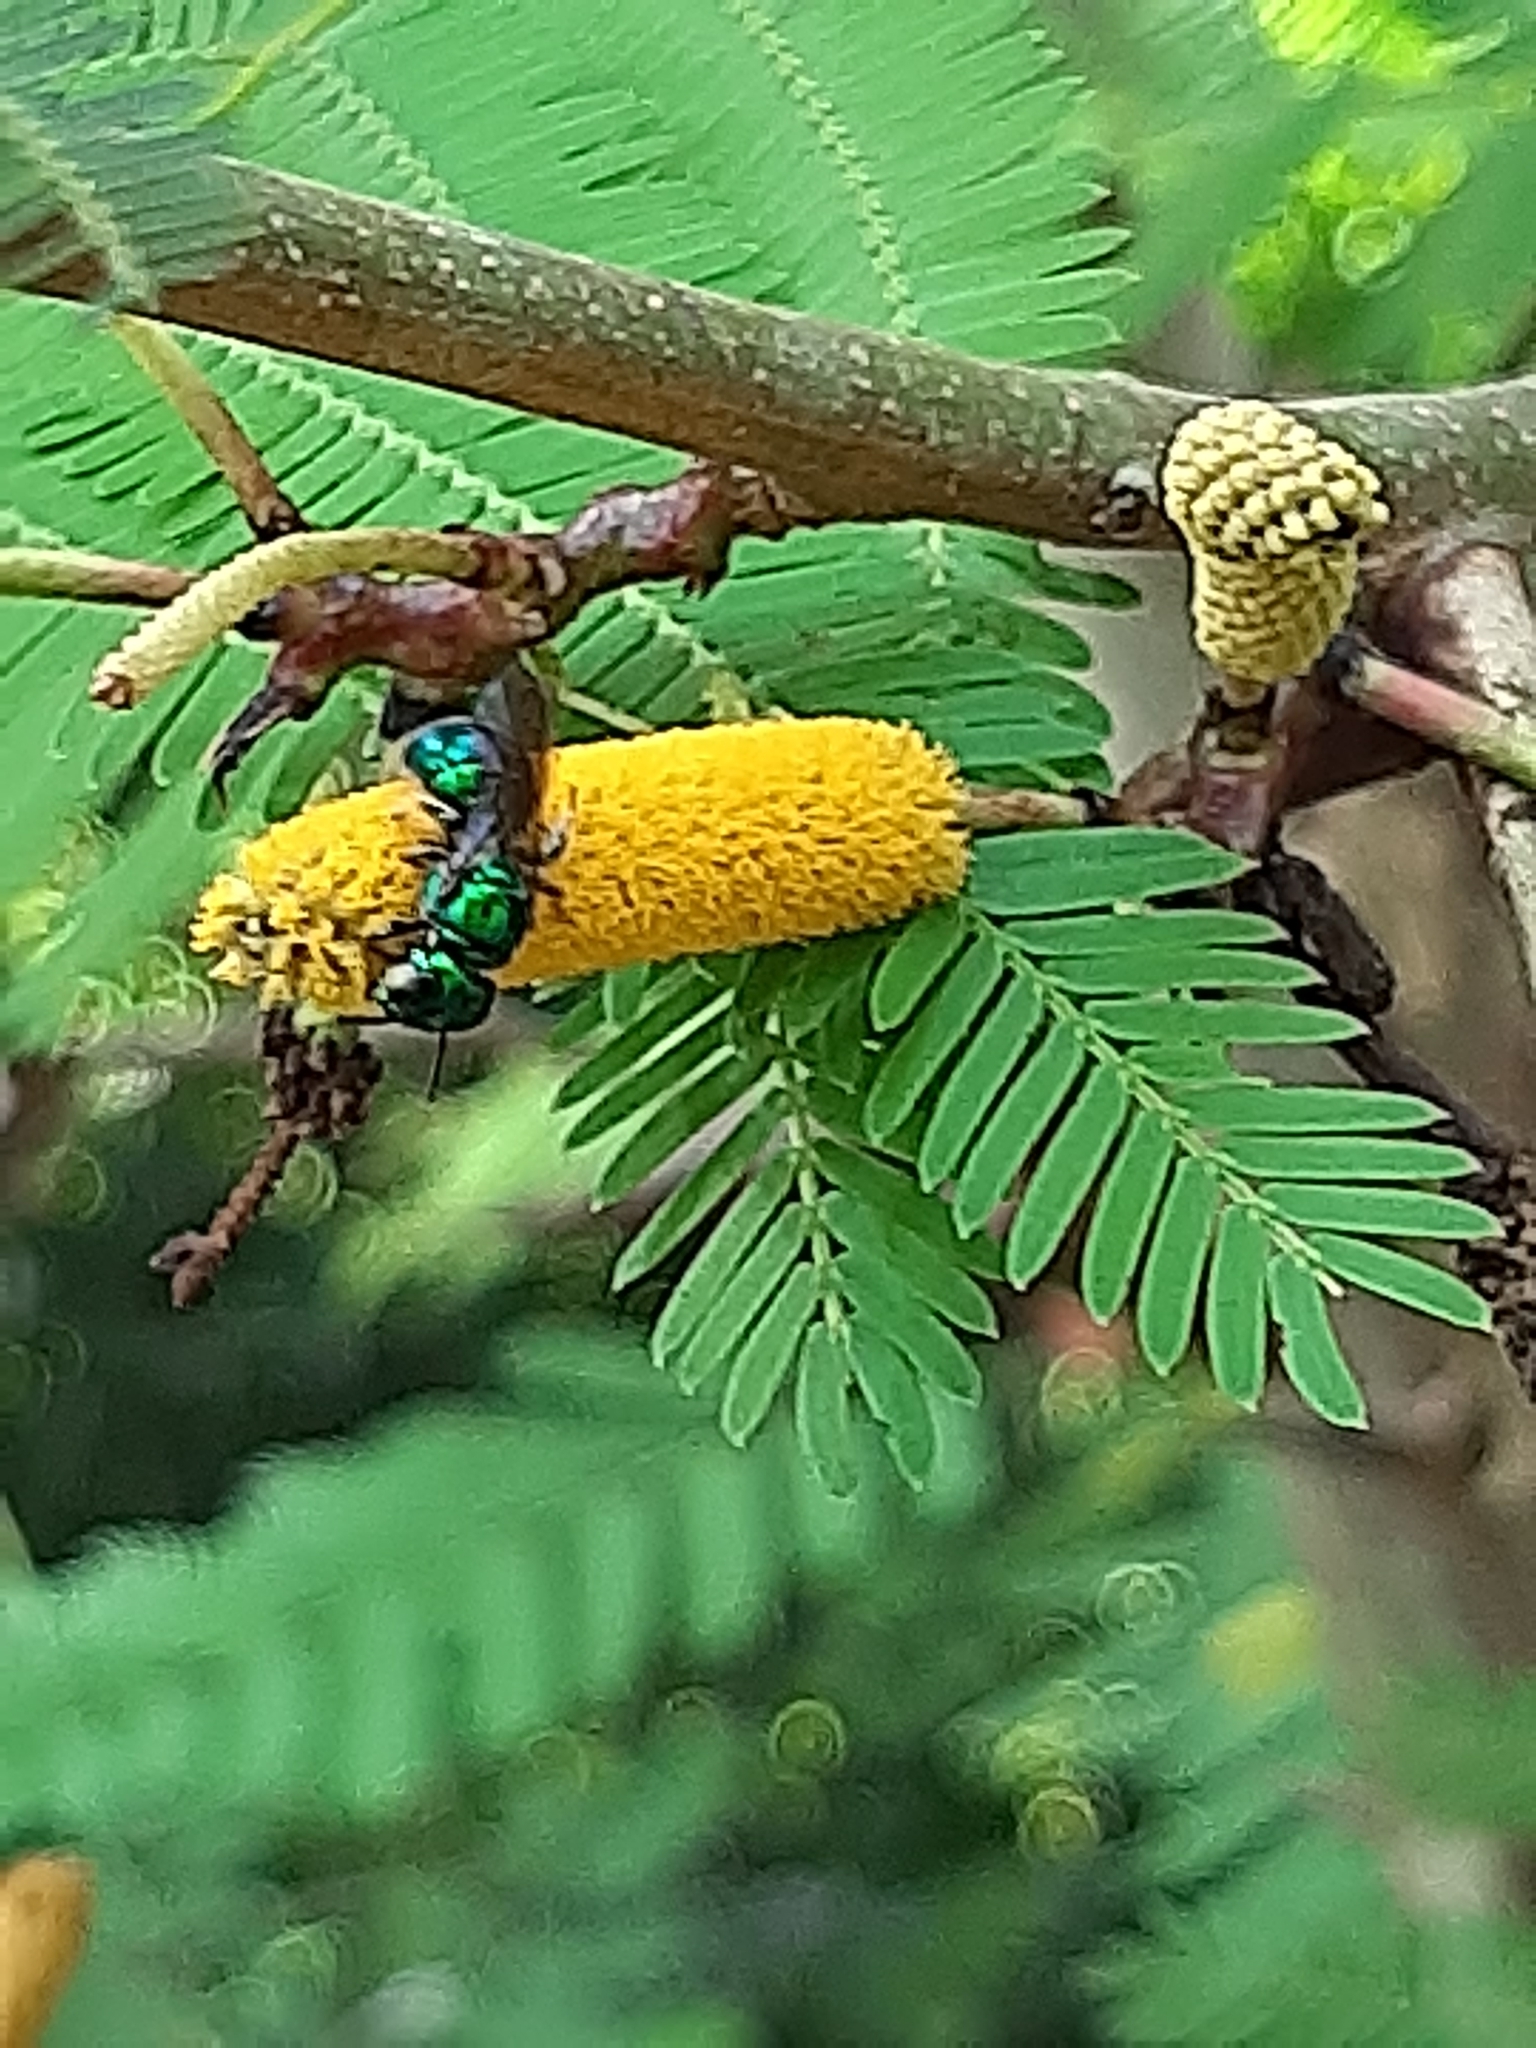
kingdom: Animalia
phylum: Arthropoda
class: Insecta
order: Hymenoptera
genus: Calloceratina
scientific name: Calloceratina
